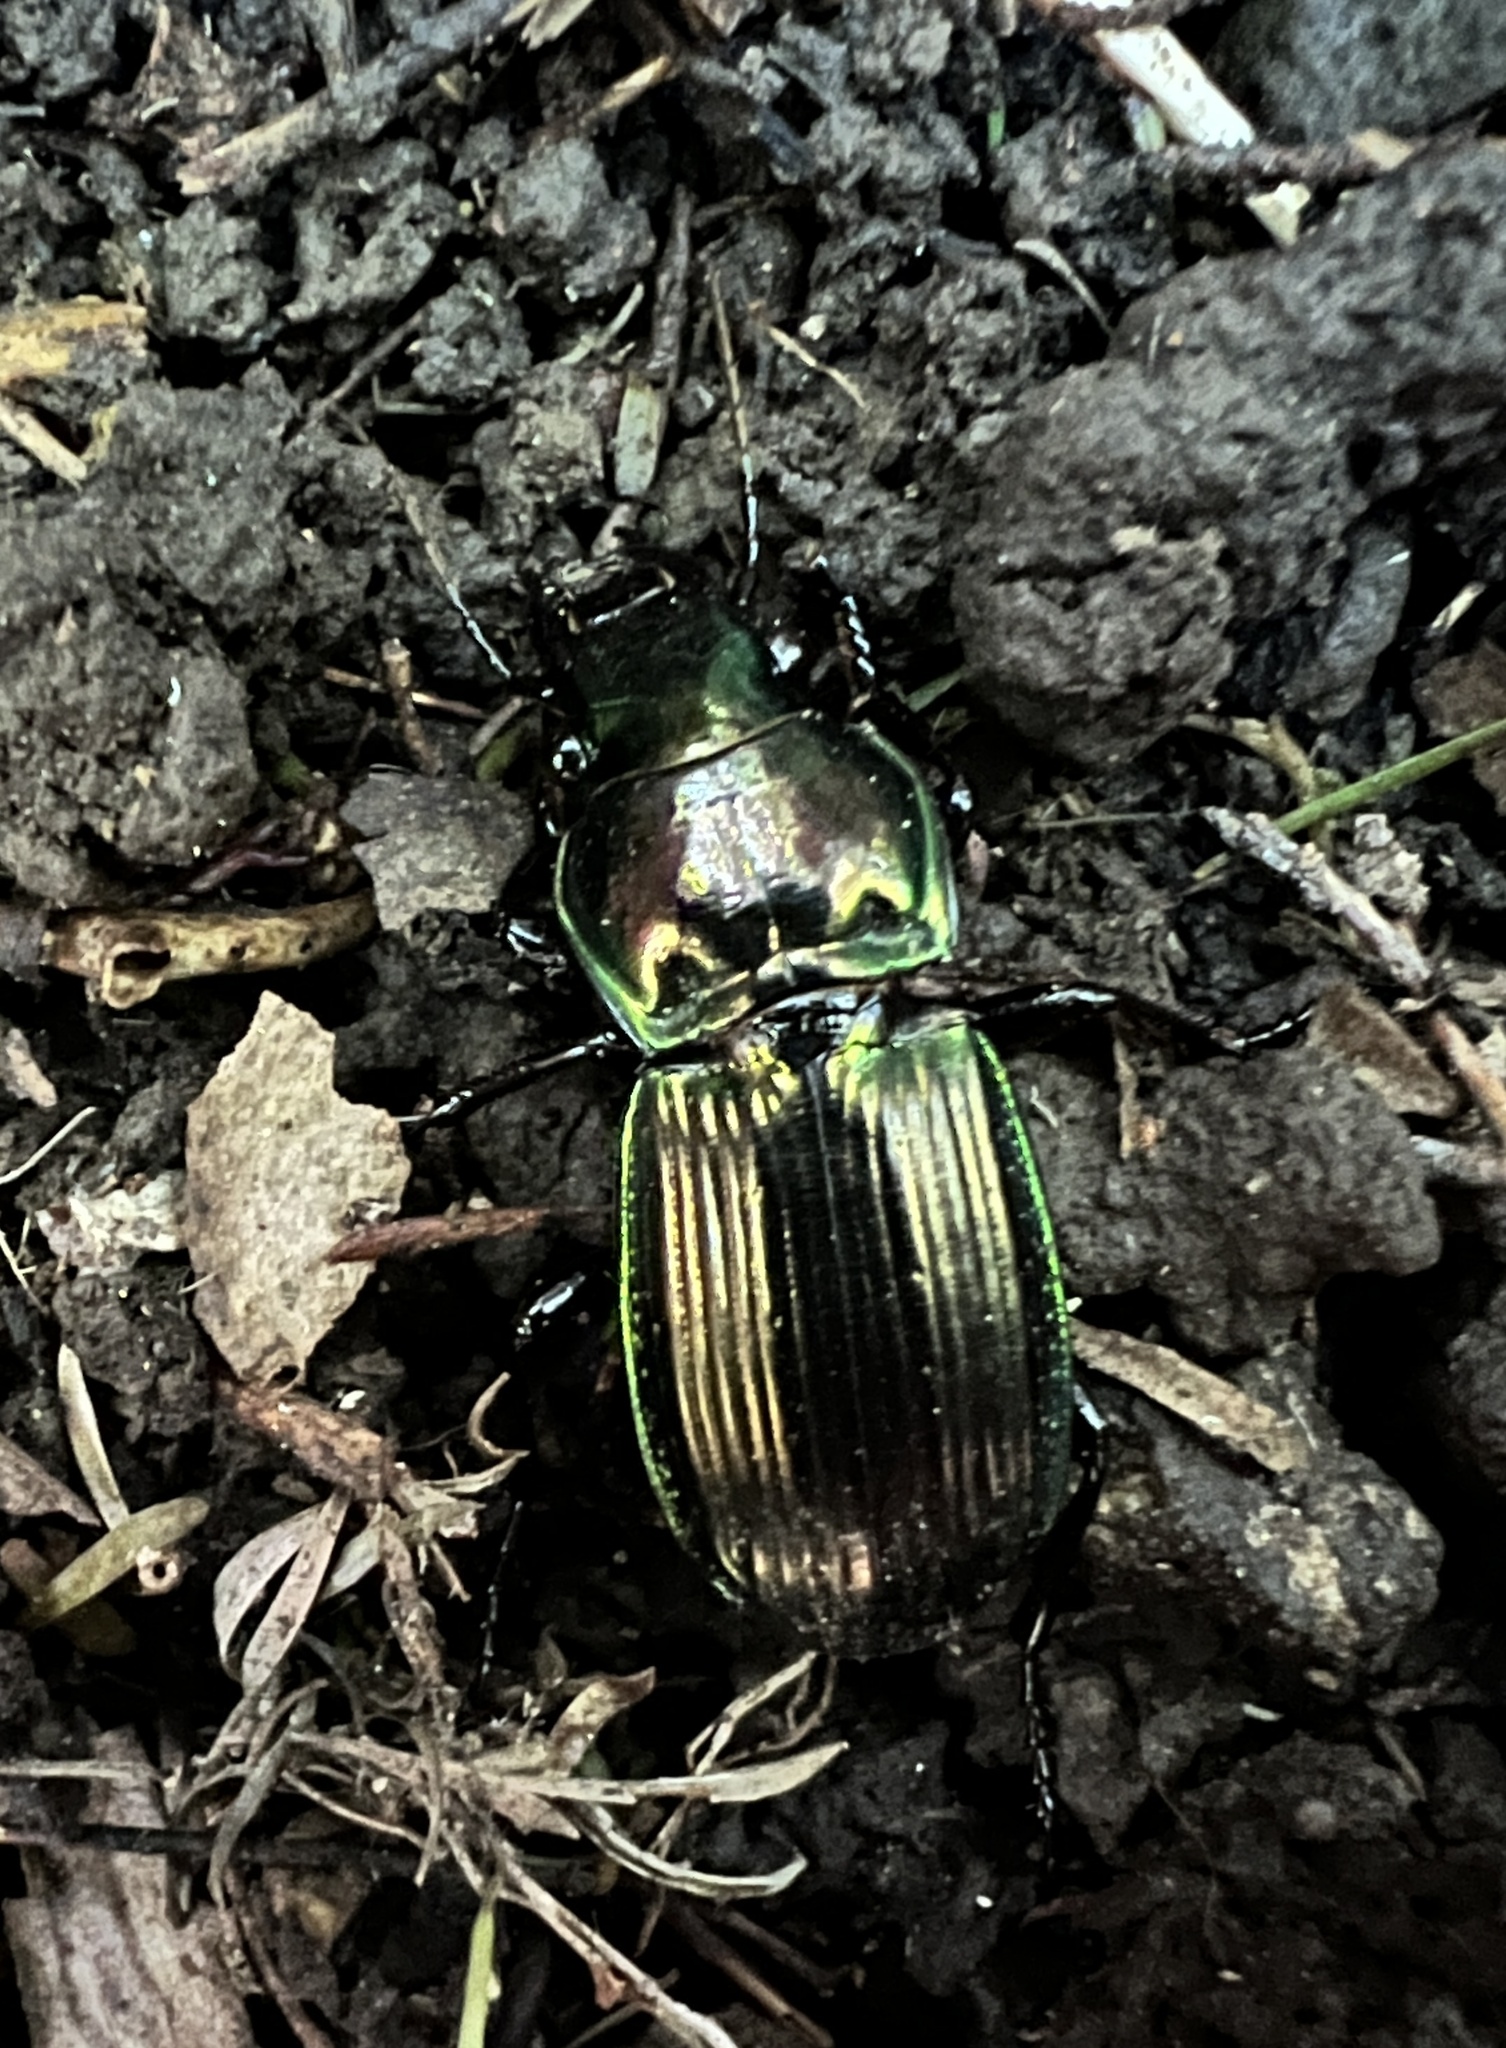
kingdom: Animalia
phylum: Arthropoda
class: Insecta
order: Coleoptera
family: Carabidae
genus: Megadromus
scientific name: Megadromus antarcticus
